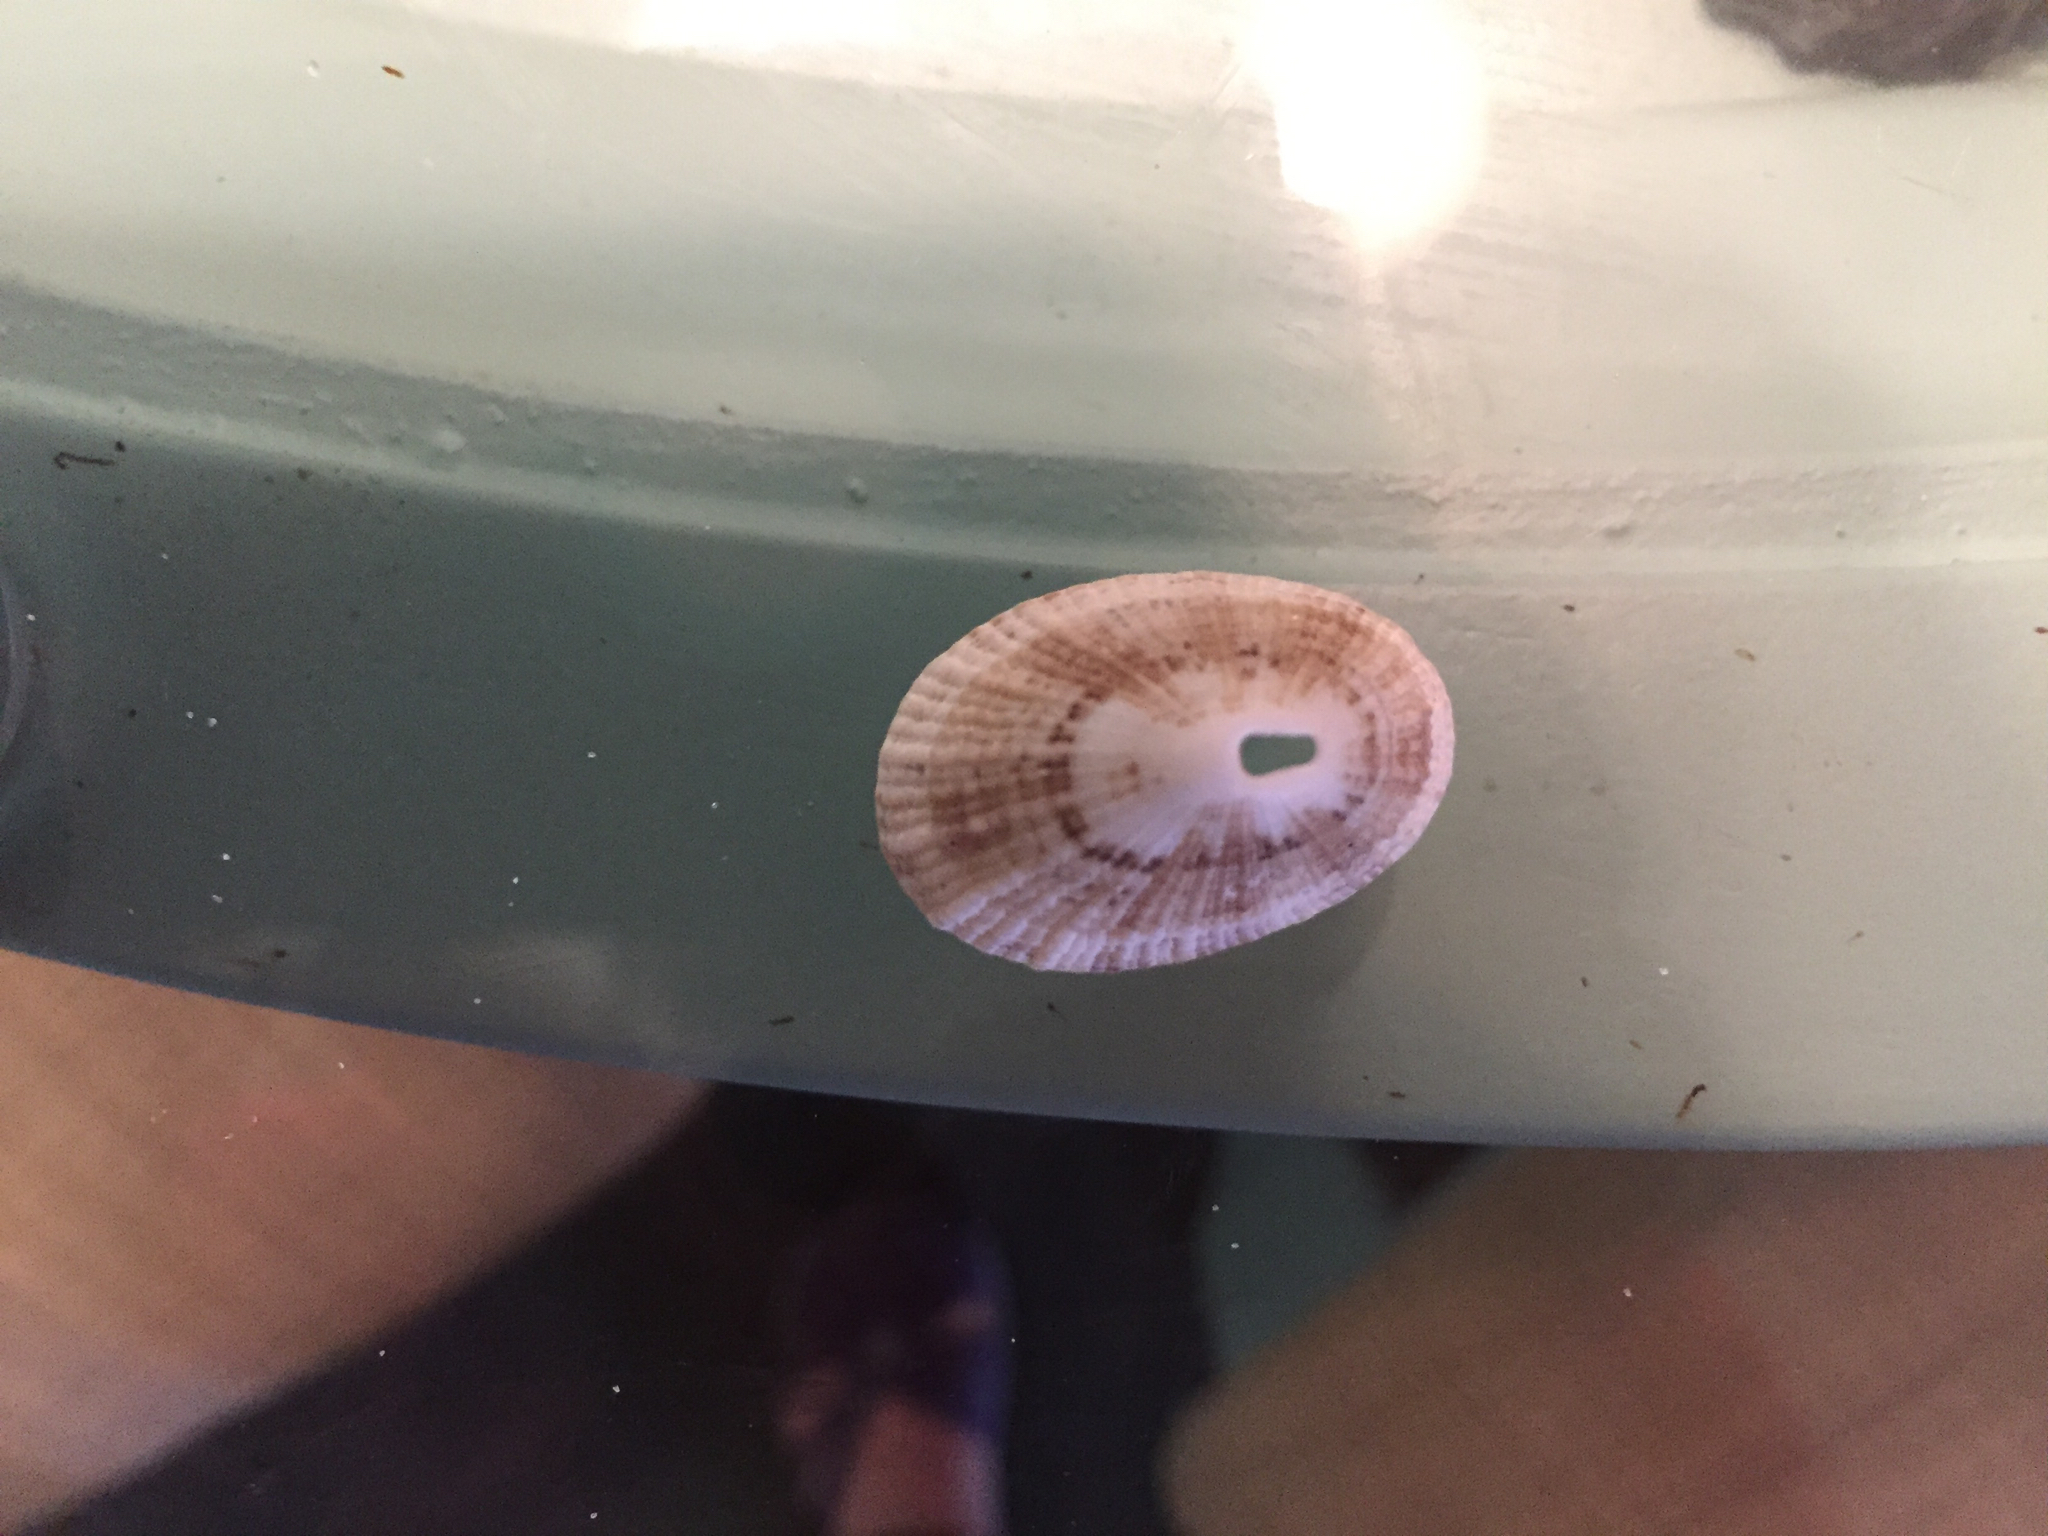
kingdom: Animalia
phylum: Mollusca
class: Gastropoda
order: Lepetellida
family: Fissurellidae
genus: Diodora
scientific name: Diodora cayenensis
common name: Cayenne keyhole limpet
